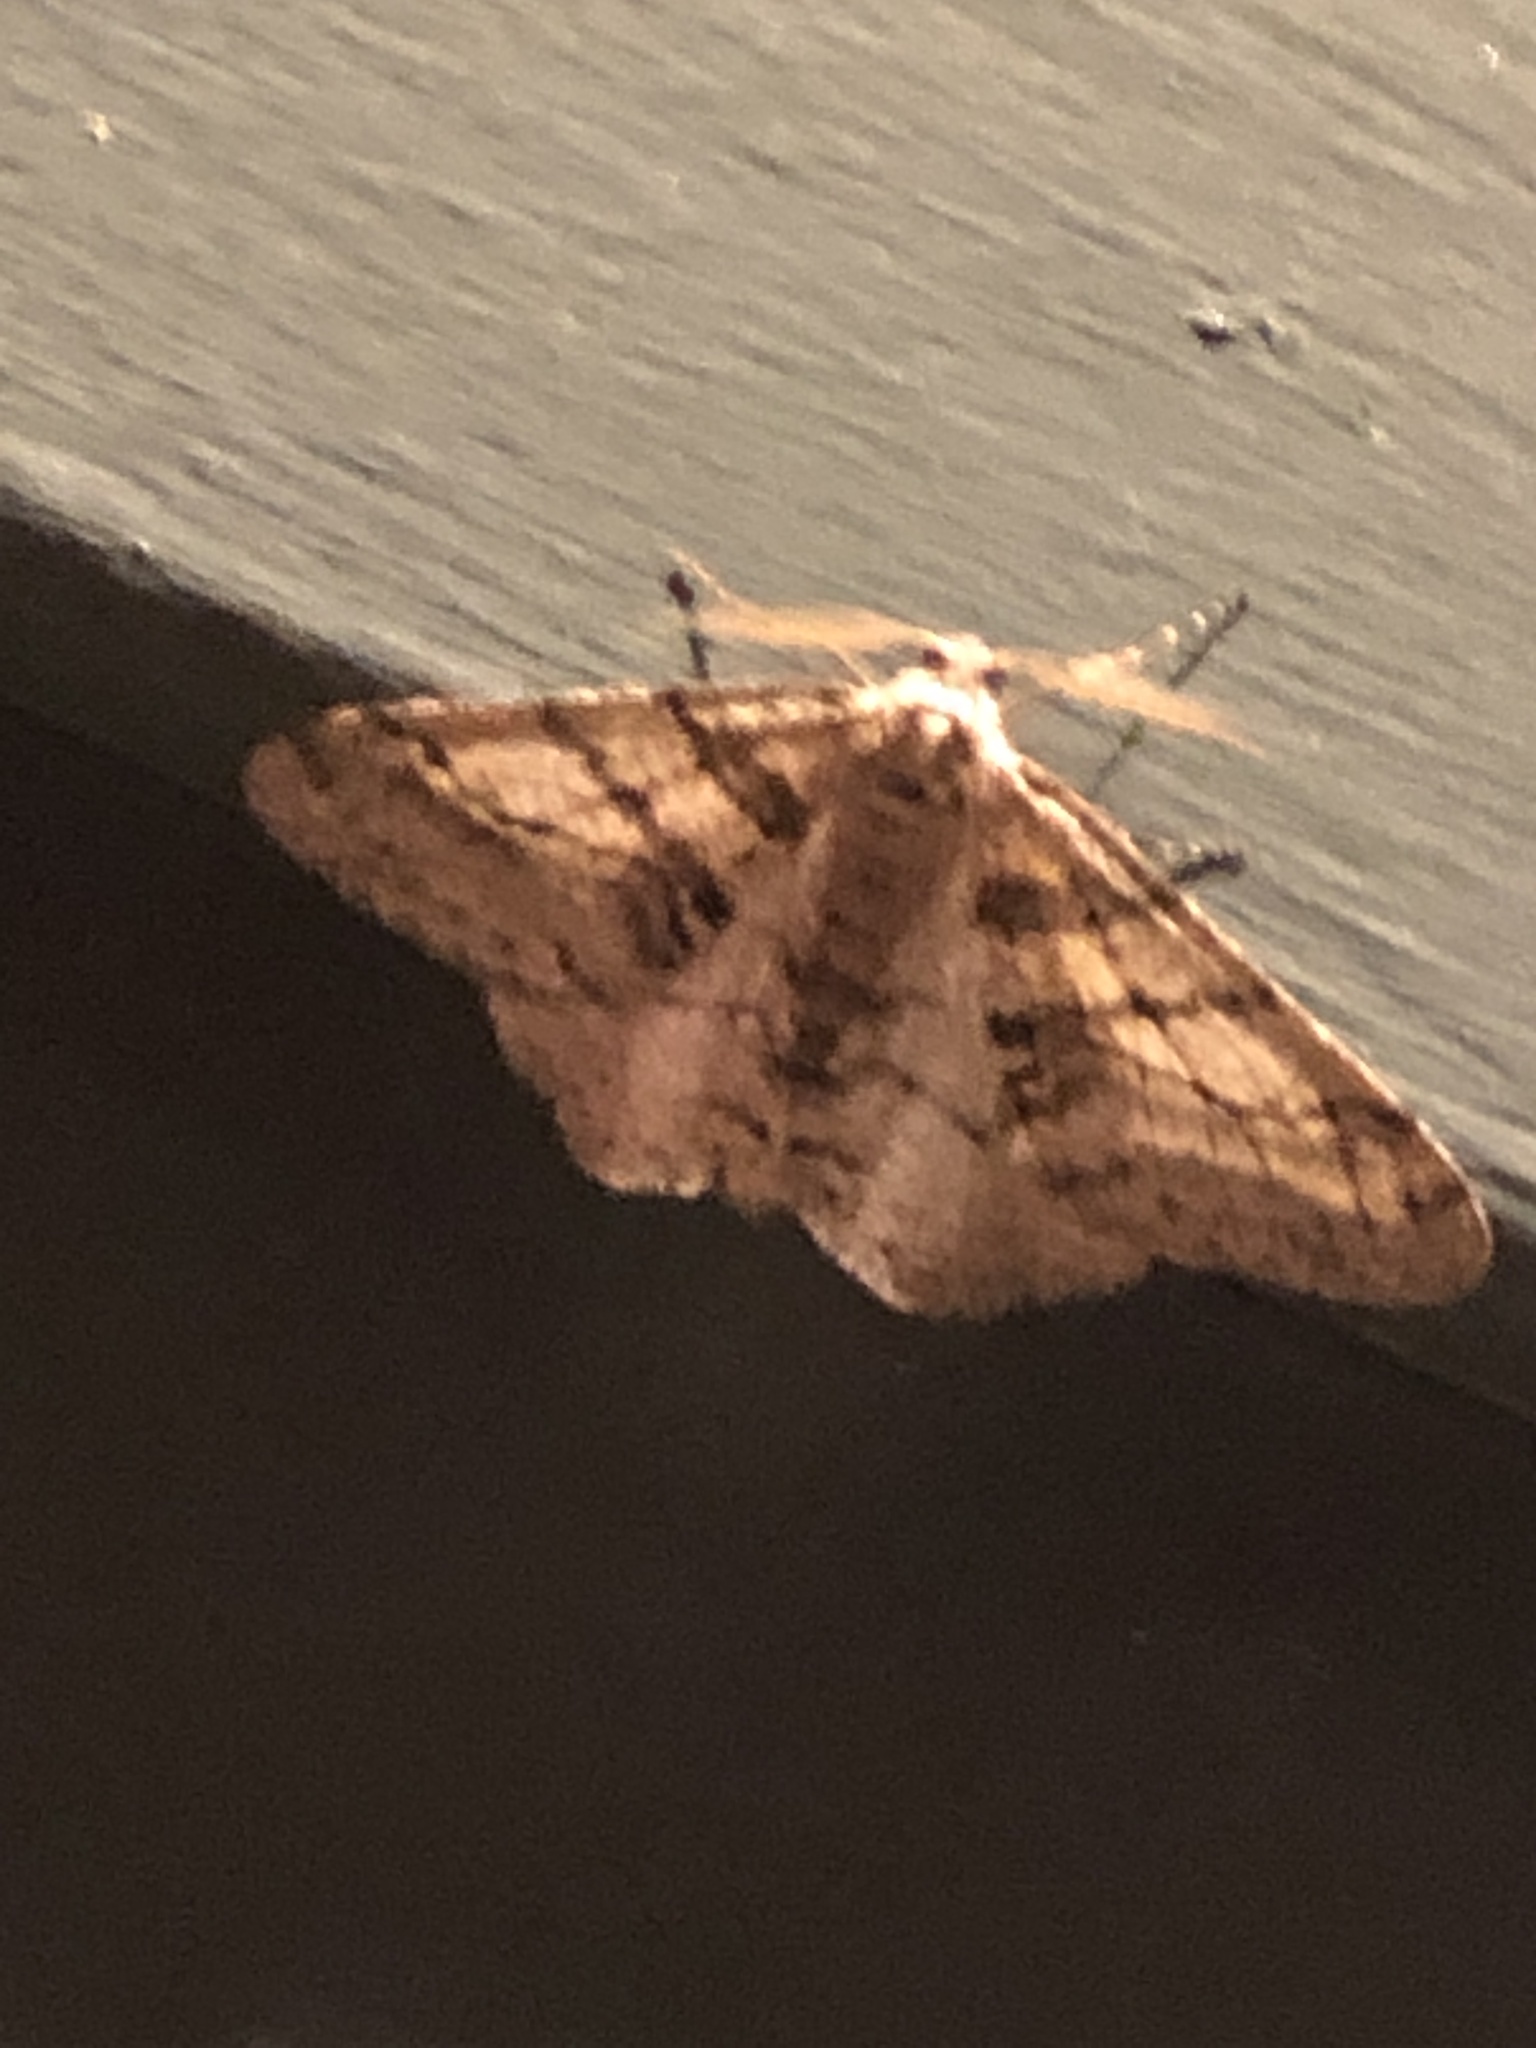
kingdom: Animalia
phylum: Arthropoda
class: Insecta
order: Lepidoptera
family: Geometridae
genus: Phigalia
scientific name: Phigalia titea
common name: Spiny looper
